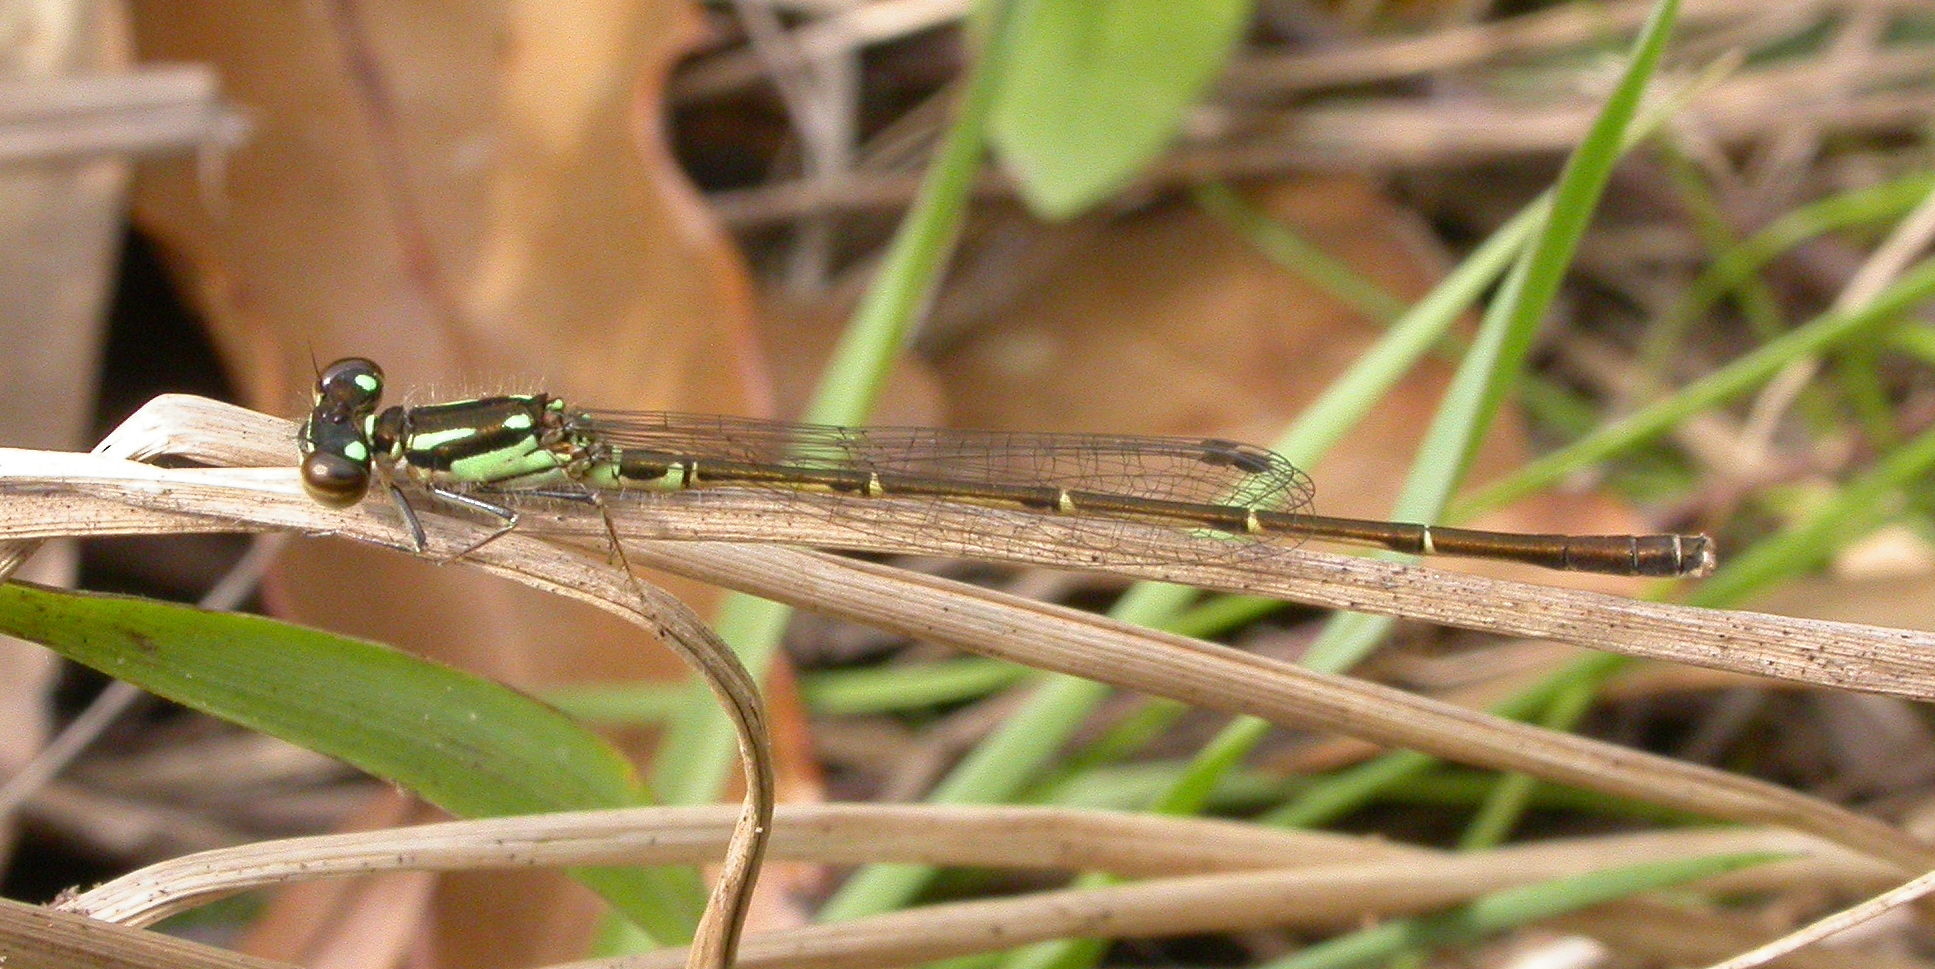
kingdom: Animalia
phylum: Arthropoda
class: Insecta
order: Odonata
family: Coenagrionidae
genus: Ischnura
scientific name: Ischnura posita
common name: Fragile forktail
